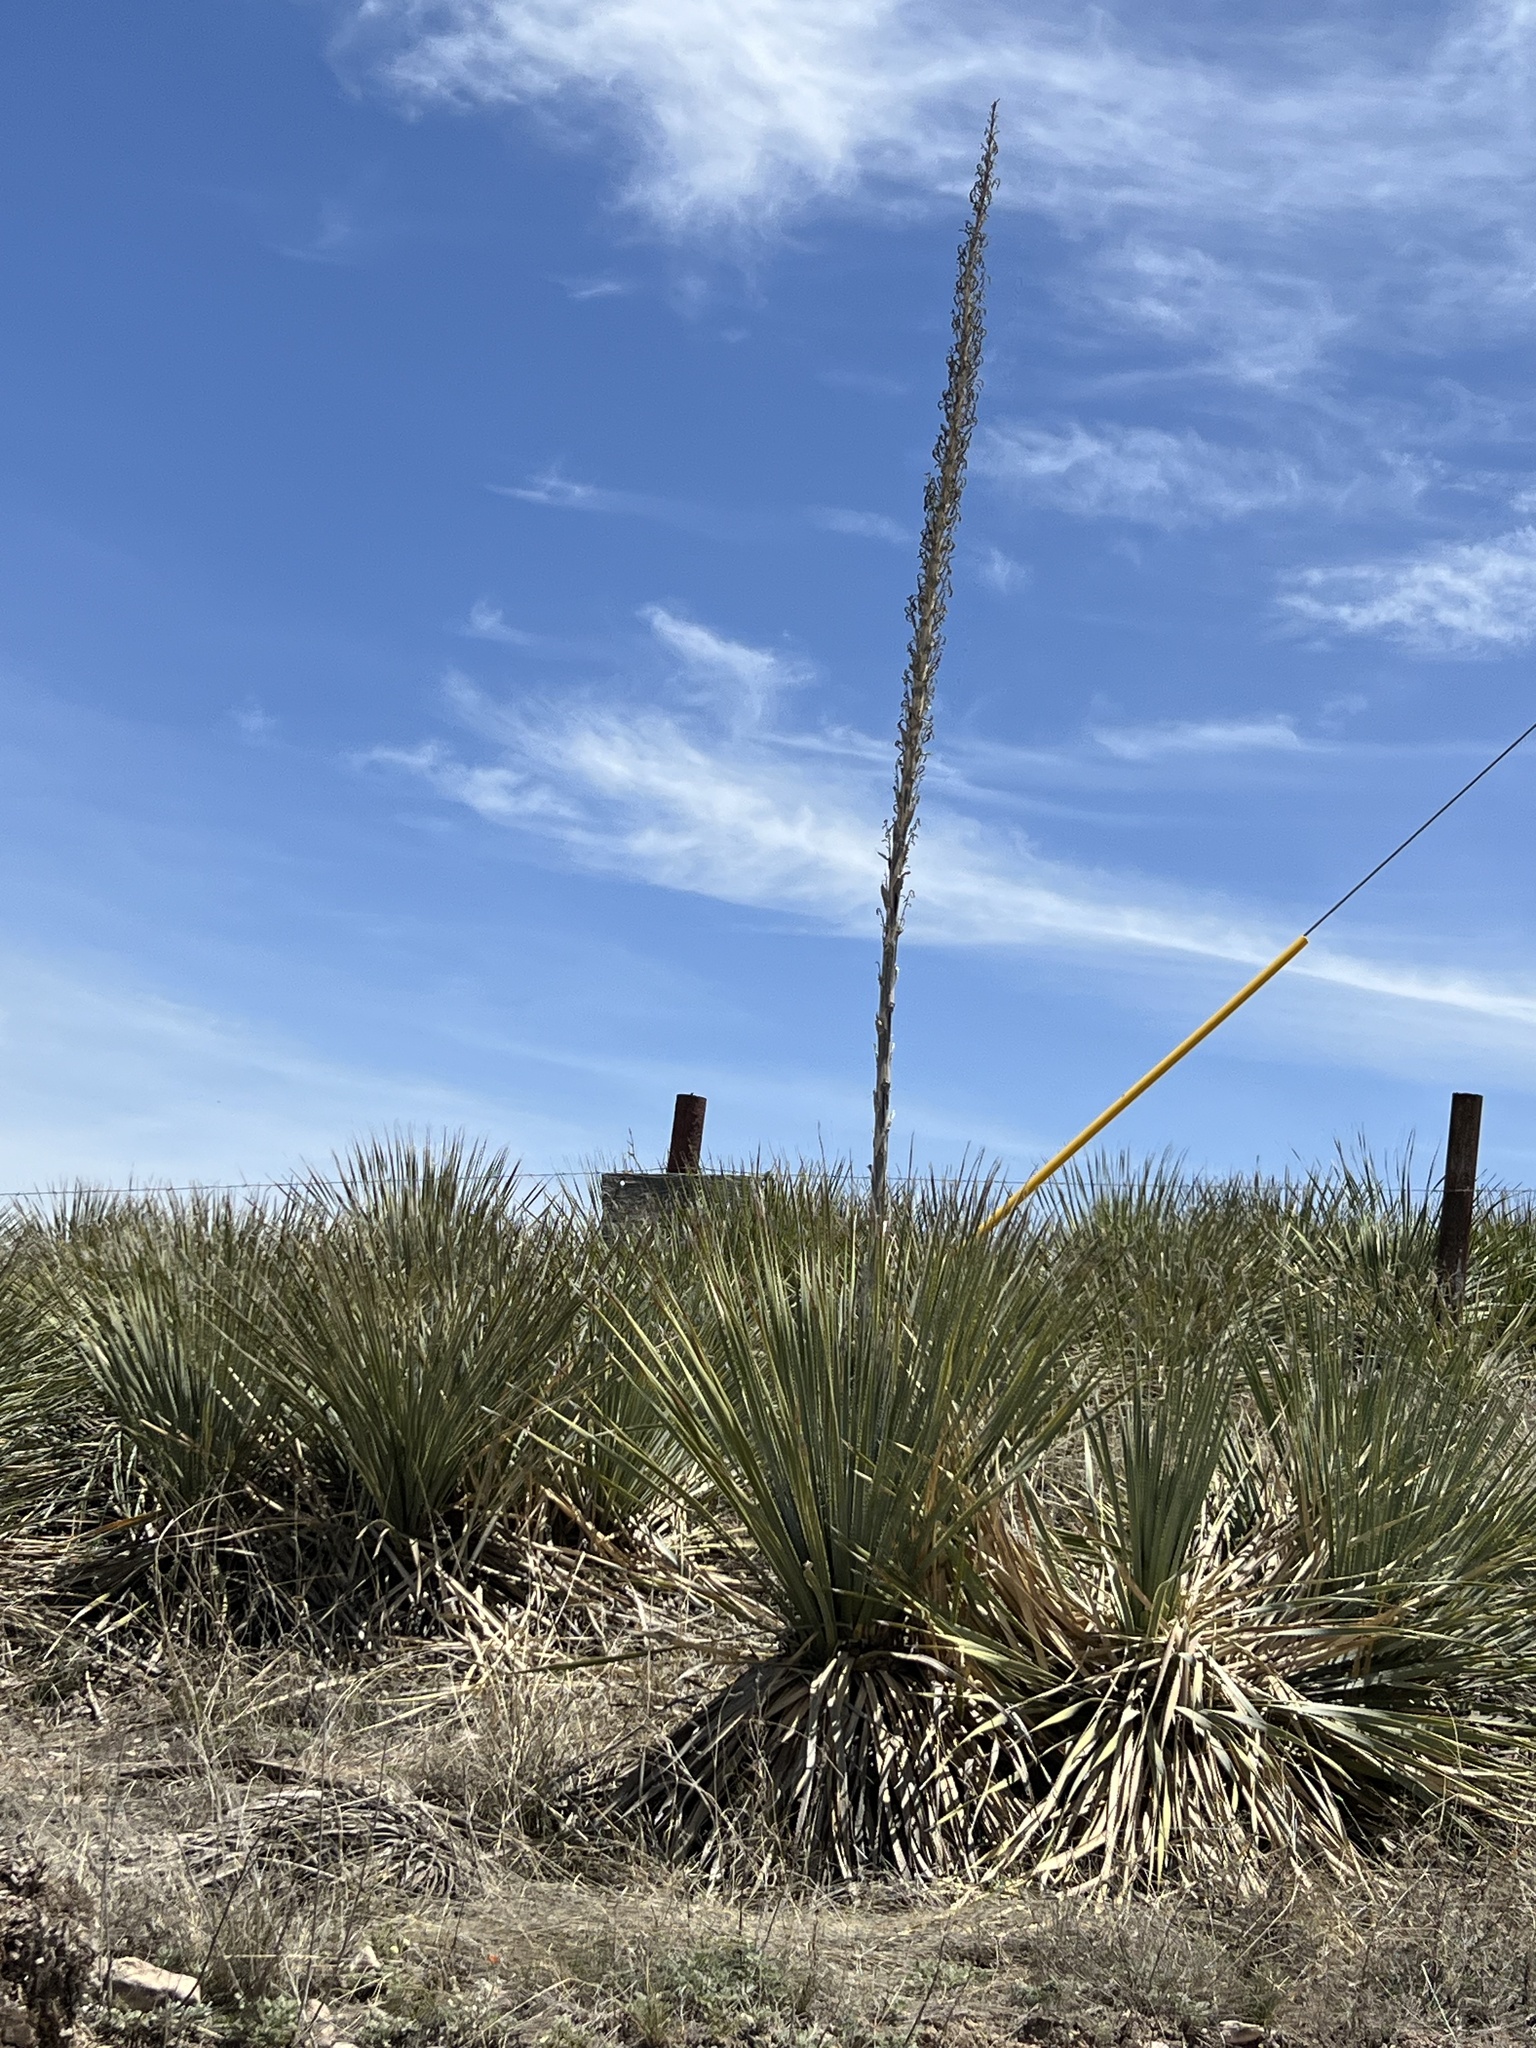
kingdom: Plantae
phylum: Tracheophyta
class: Liliopsida
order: Asparagales
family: Asparagaceae
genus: Dasylirion
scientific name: Dasylirion wheeleri
